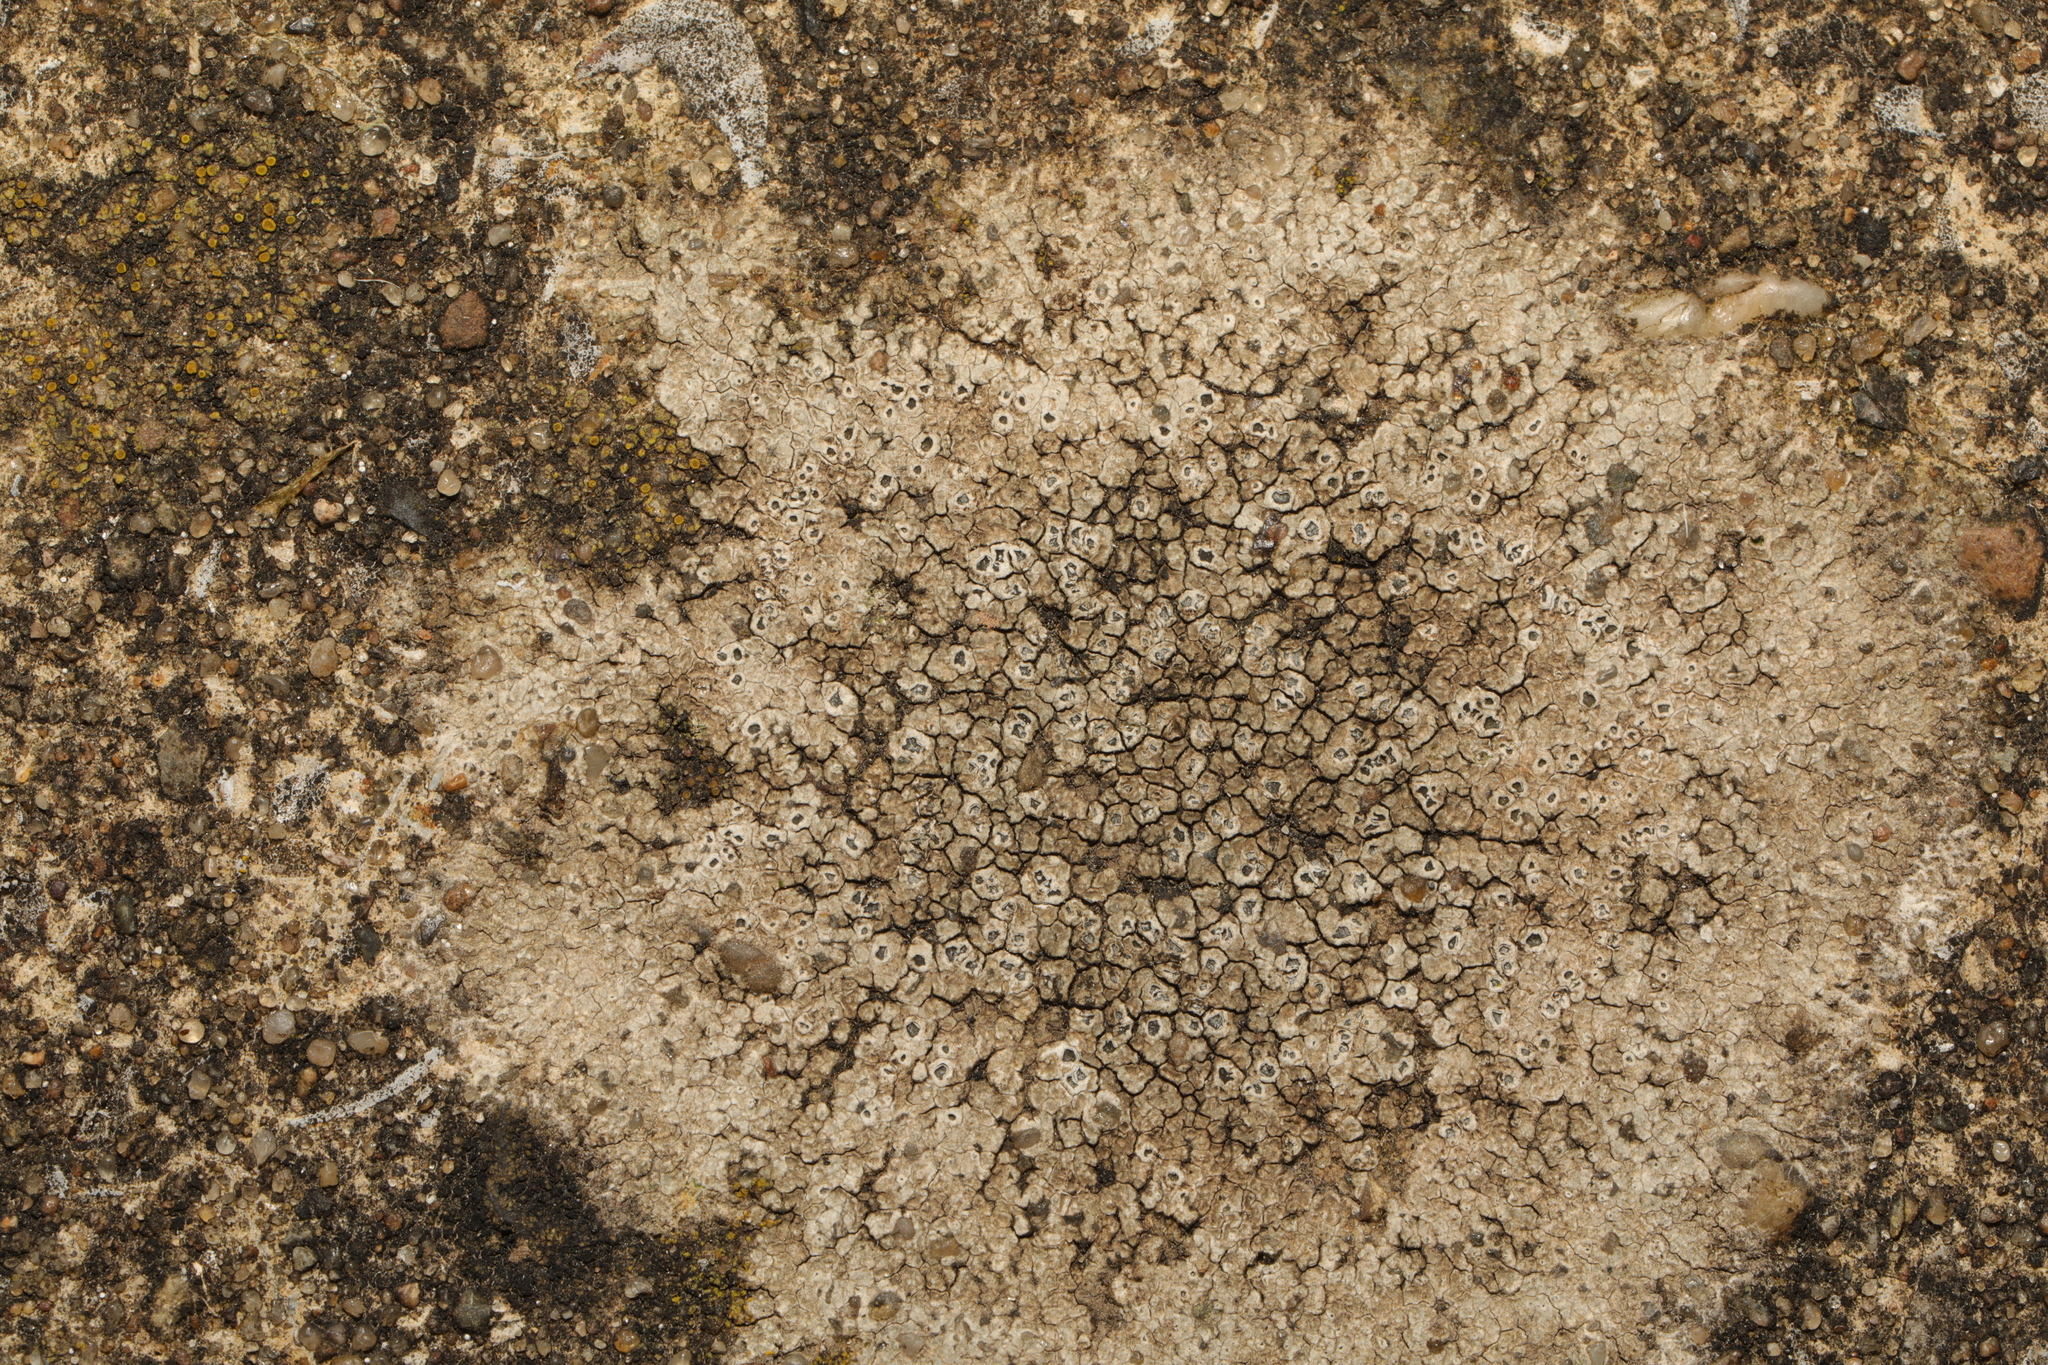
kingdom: Fungi
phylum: Ascomycota
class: Lecanoromycetes
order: Pertusariales
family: Megasporaceae
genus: Circinaria
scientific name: Circinaria contorta
